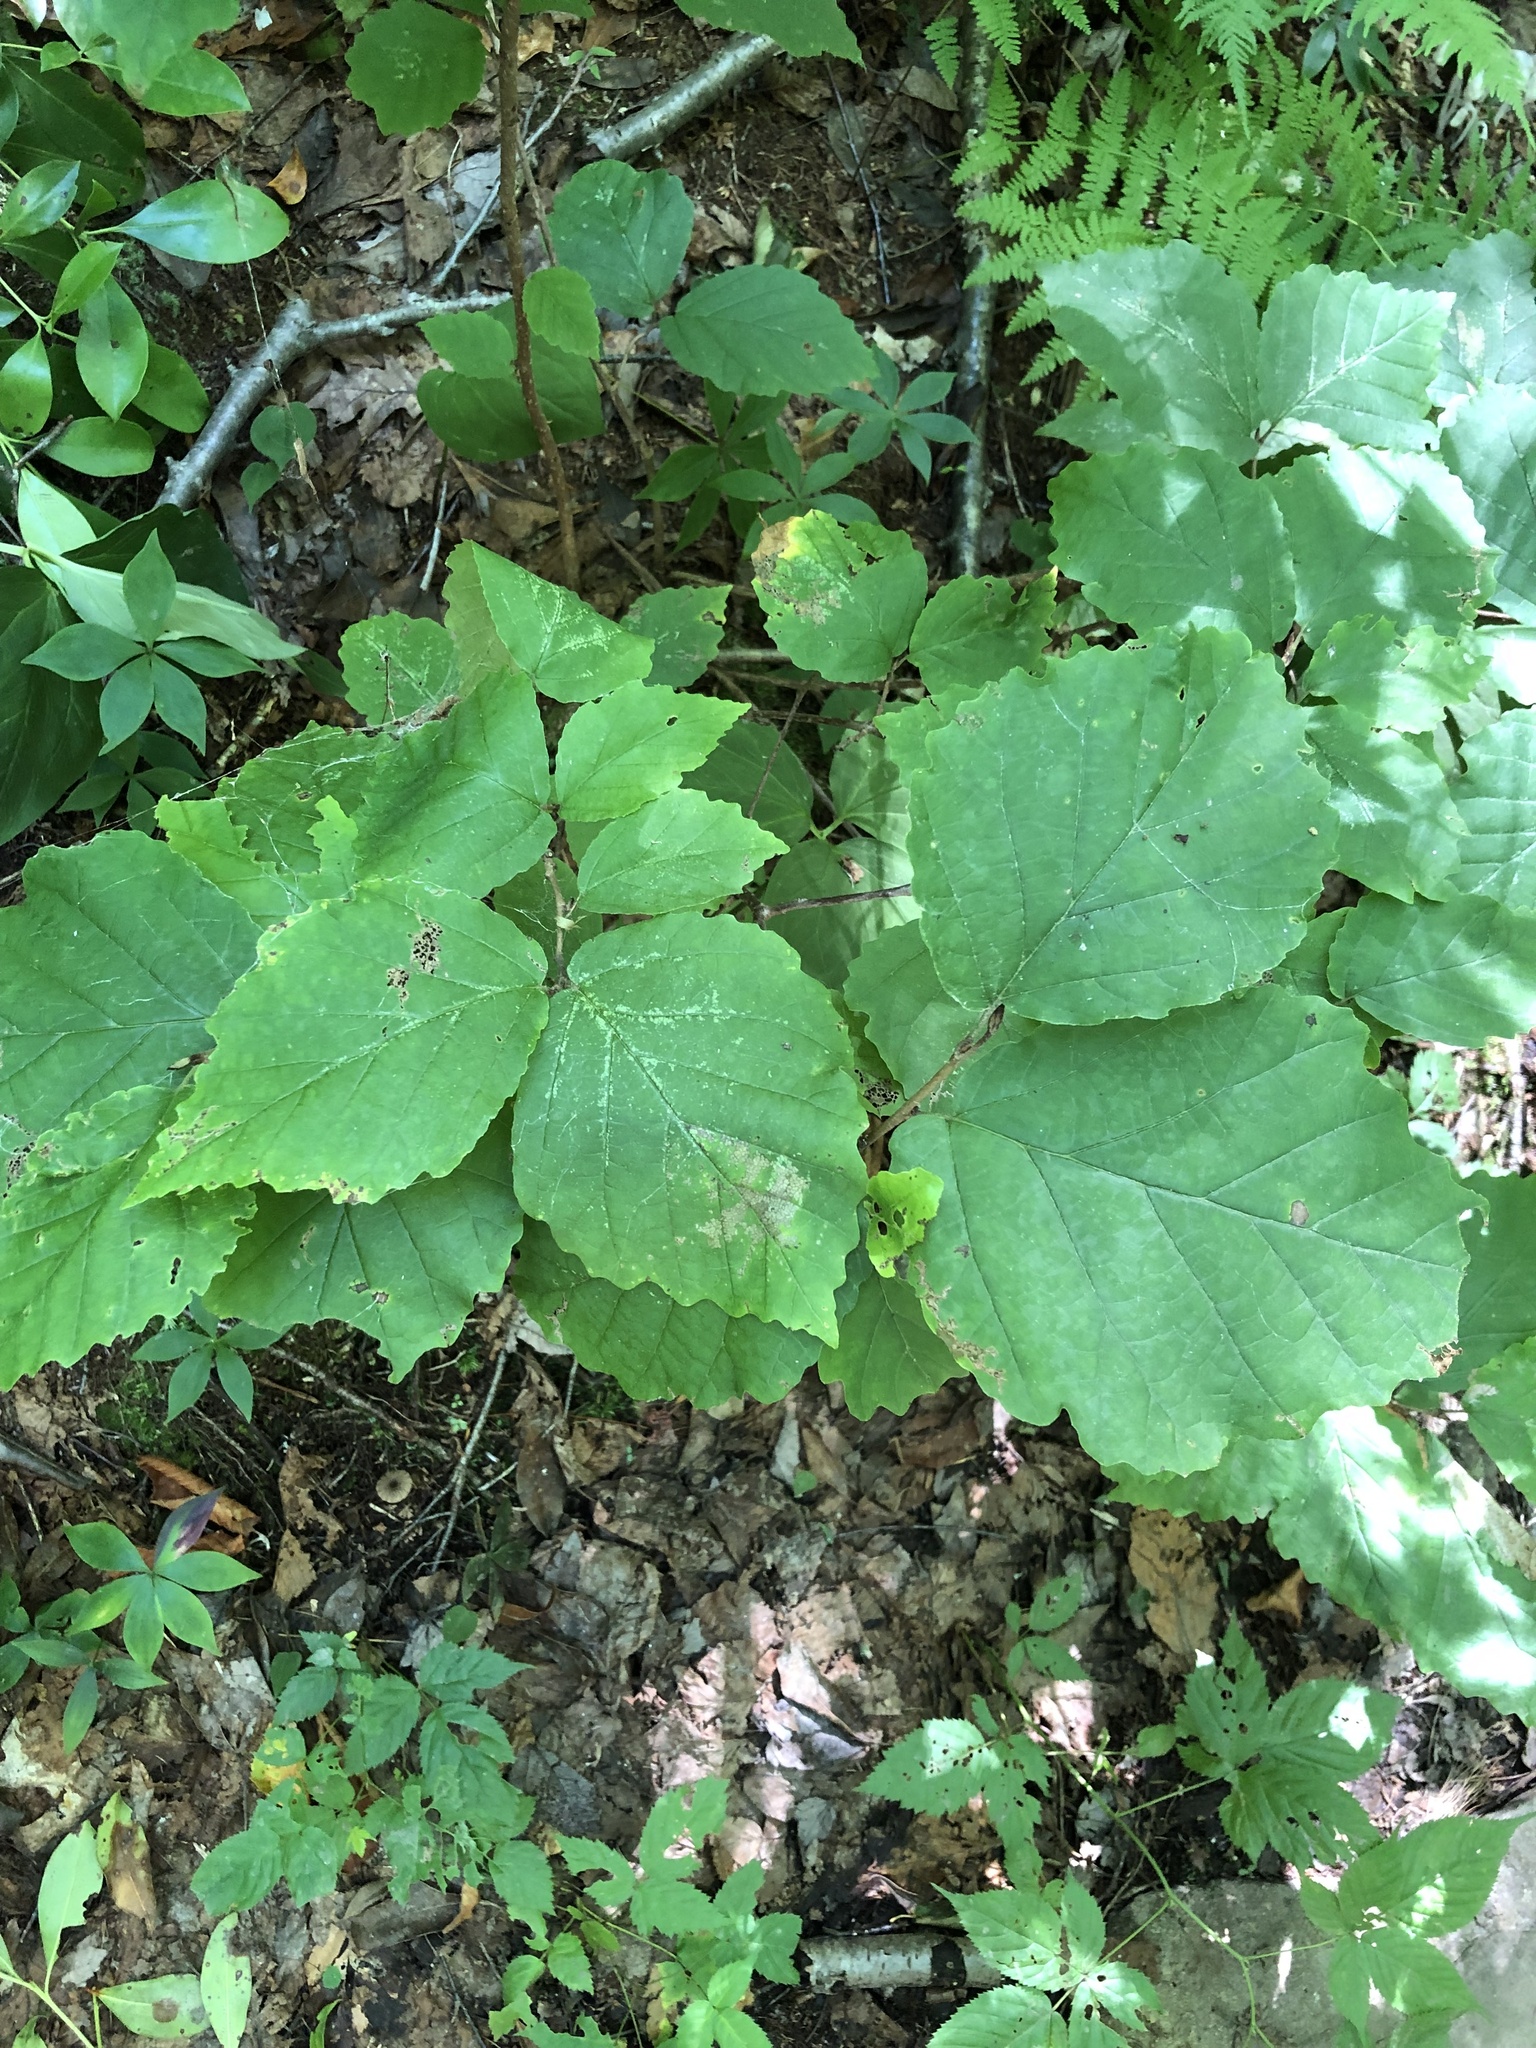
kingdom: Plantae
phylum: Tracheophyta
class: Magnoliopsida
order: Saxifragales
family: Hamamelidaceae
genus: Hamamelis
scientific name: Hamamelis virginiana
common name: Witch-hazel
